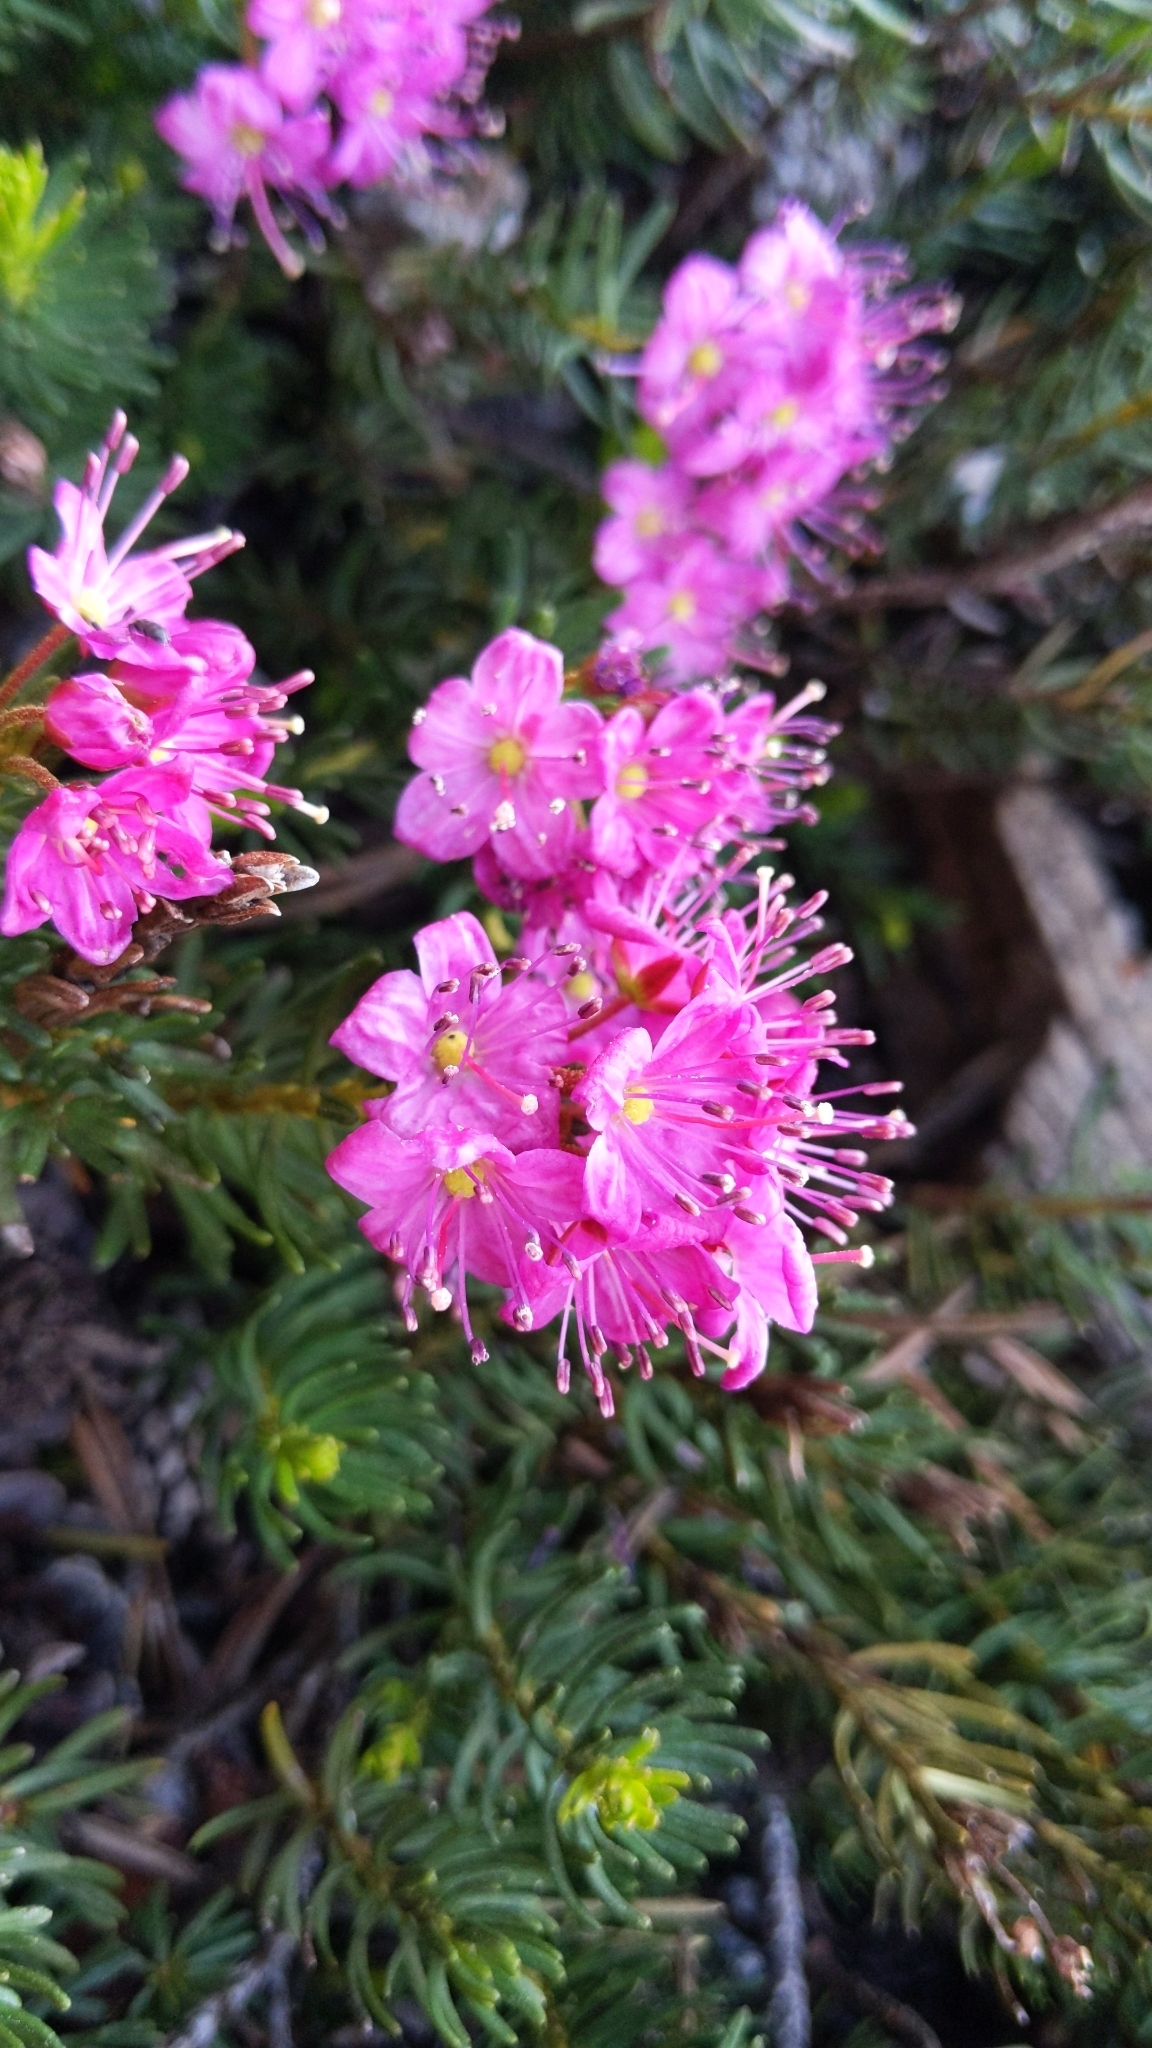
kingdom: Plantae
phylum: Tracheophyta
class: Magnoliopsida
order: Ericales
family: Ericaceae
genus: Phyllodoce
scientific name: Phyllodoce breweri
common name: Brewer's mountain-heather
